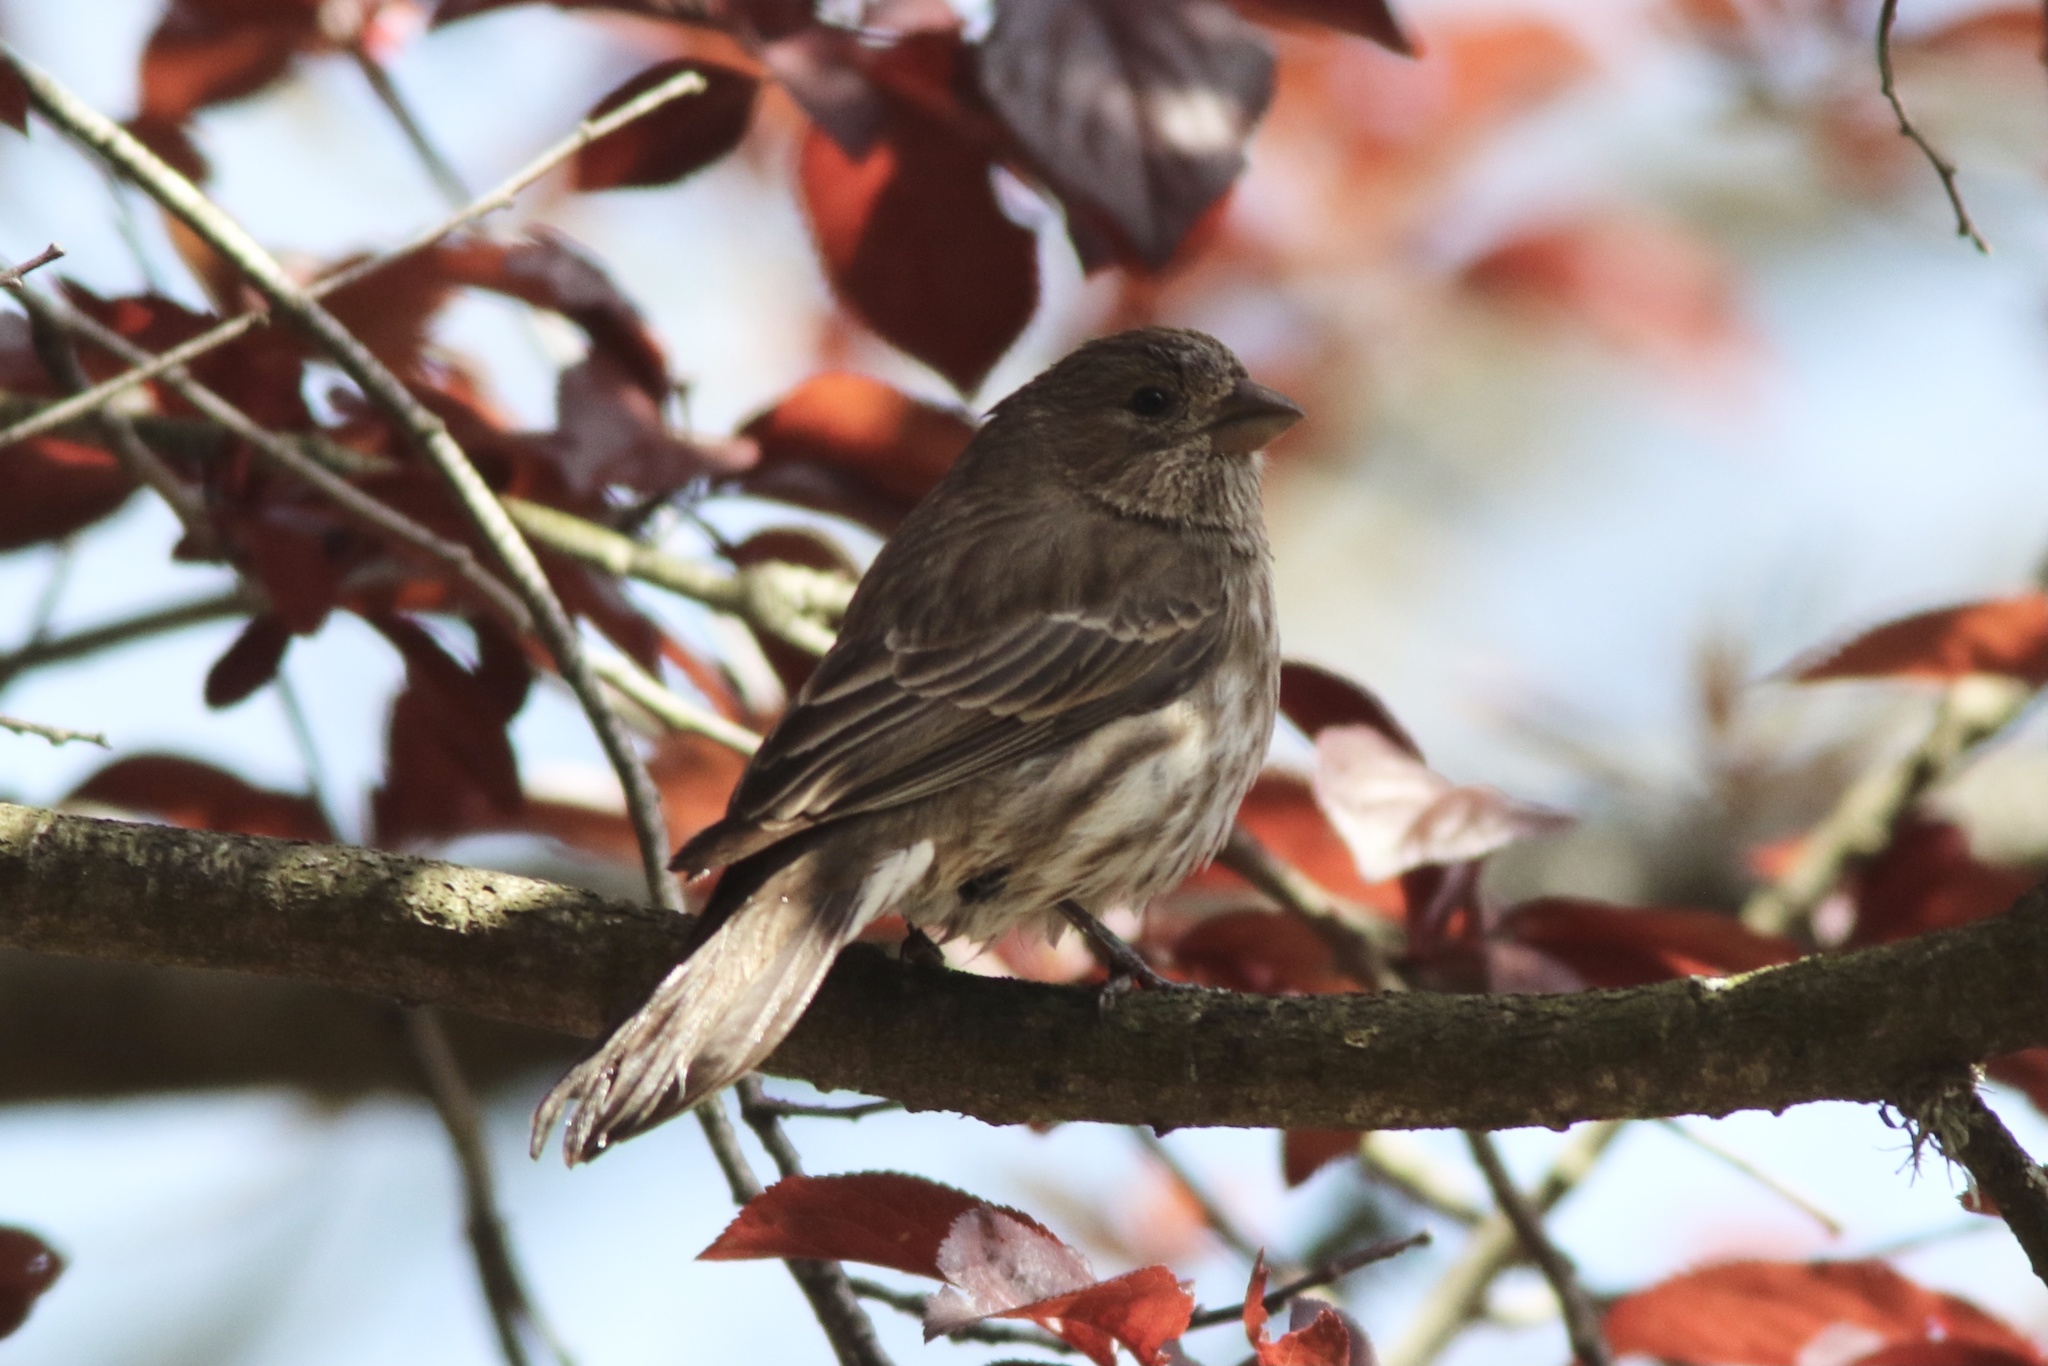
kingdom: Animalia
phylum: Chordata
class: Aves
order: Passeriformes
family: Fringillidae
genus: Haemorhous
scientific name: Haemorhous mexicanus
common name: House finch
